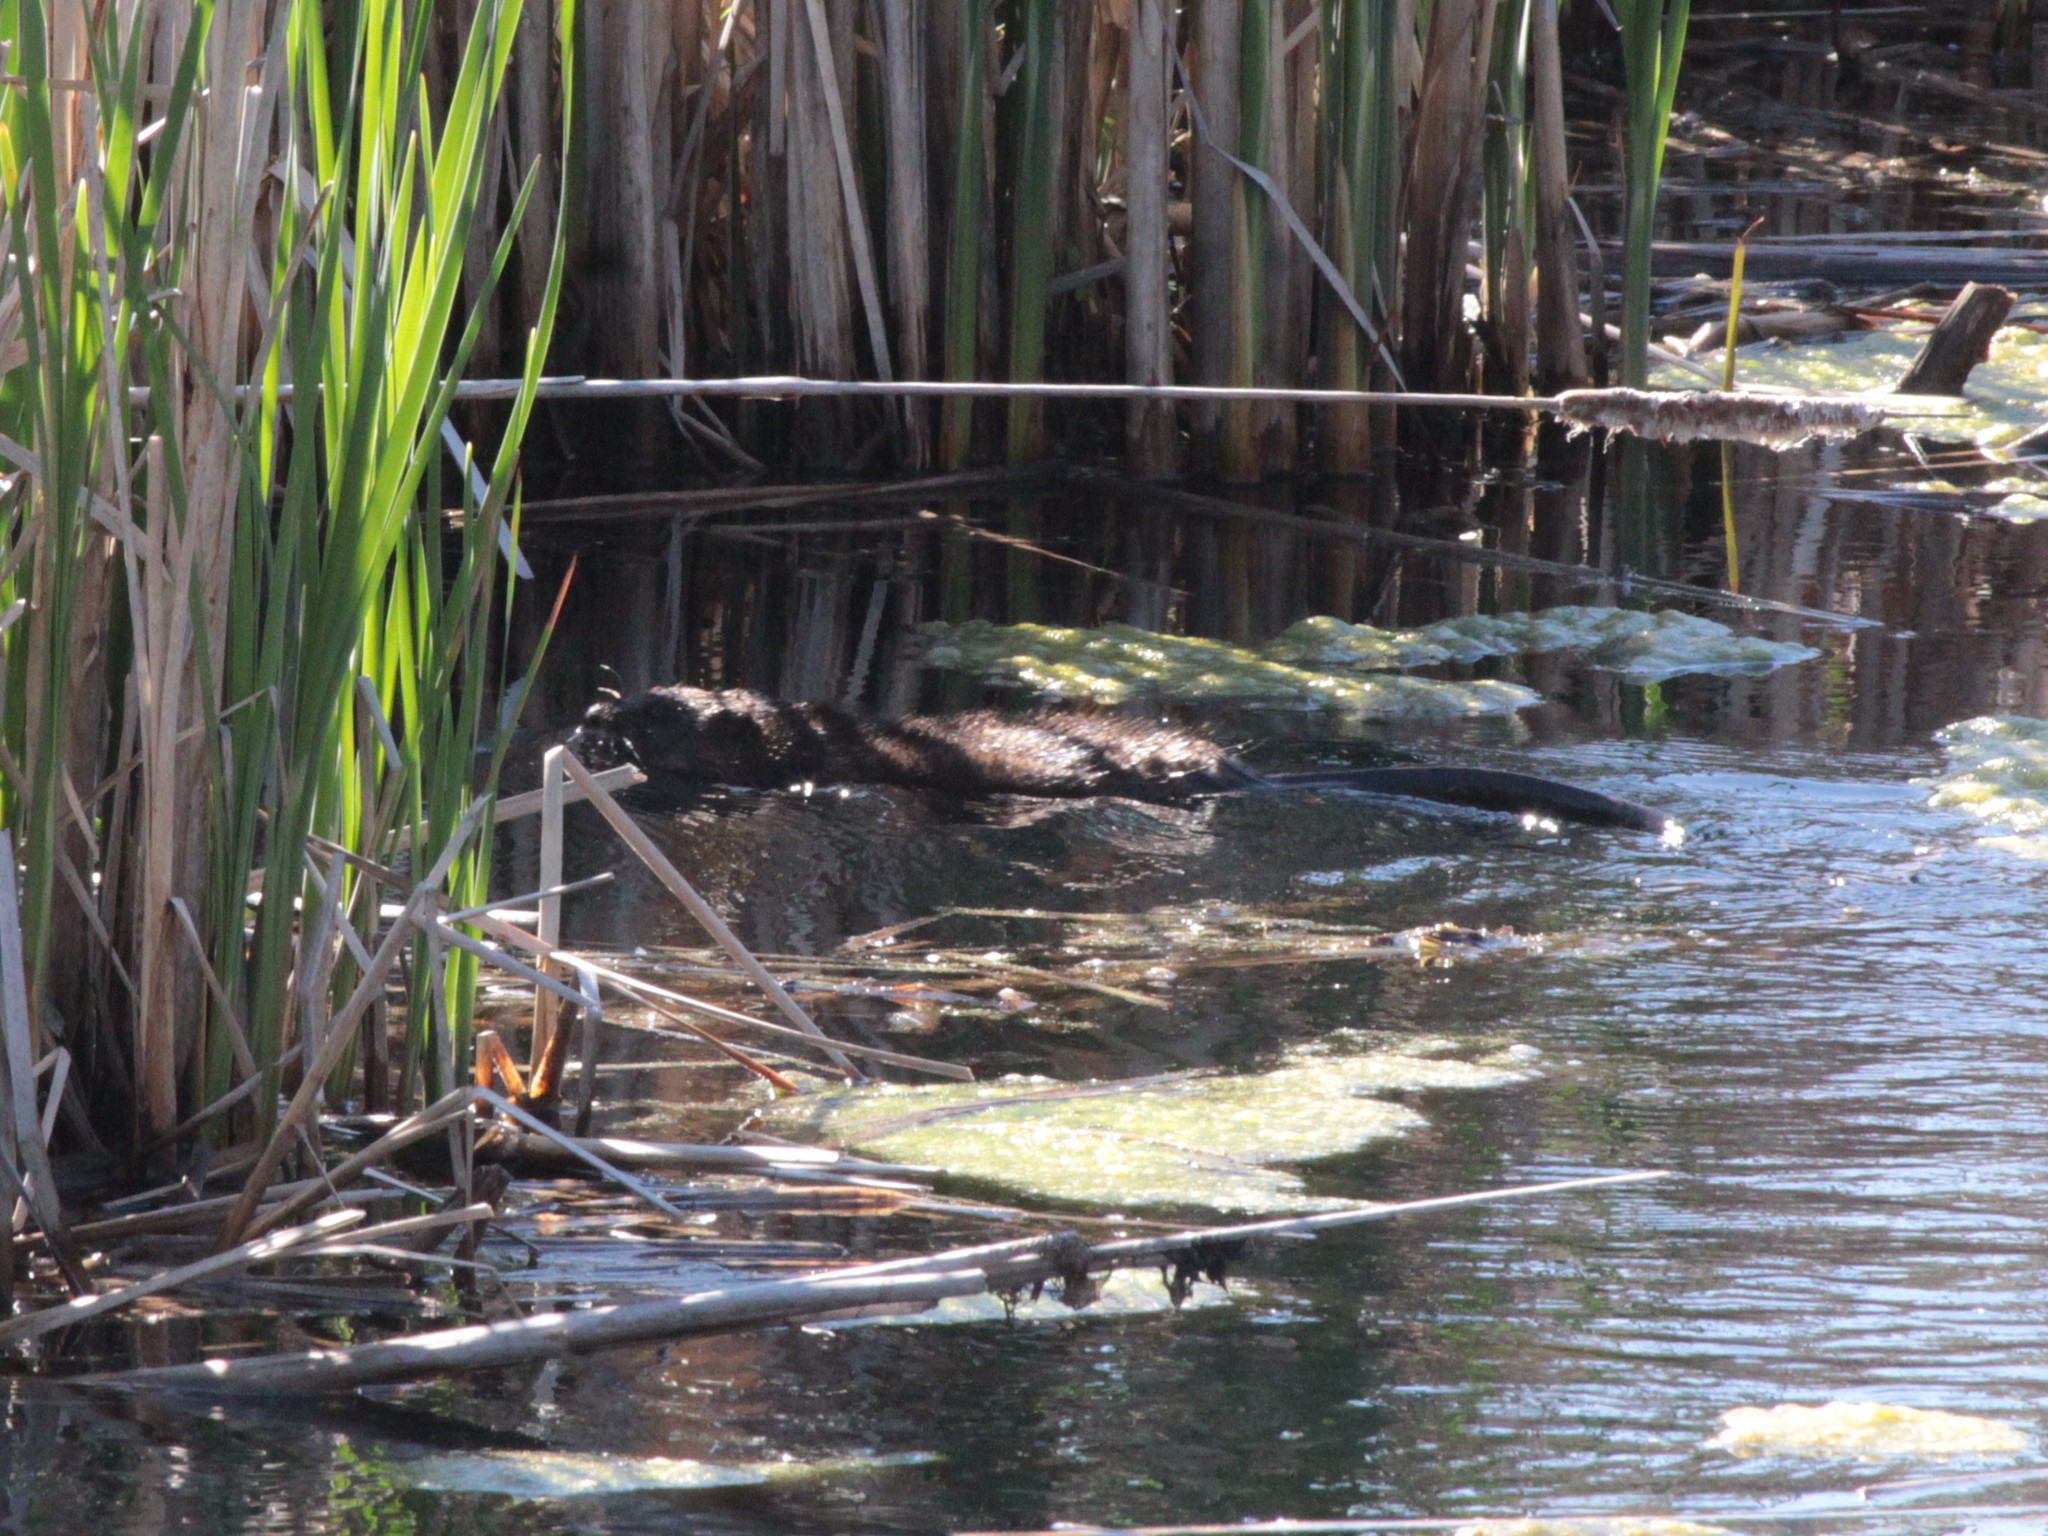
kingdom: Animalia
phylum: Chordata
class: Mammalia
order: Rodentia
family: Cricetidae
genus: Ondatra
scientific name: Ondatra zibethicus
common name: Muskrat
